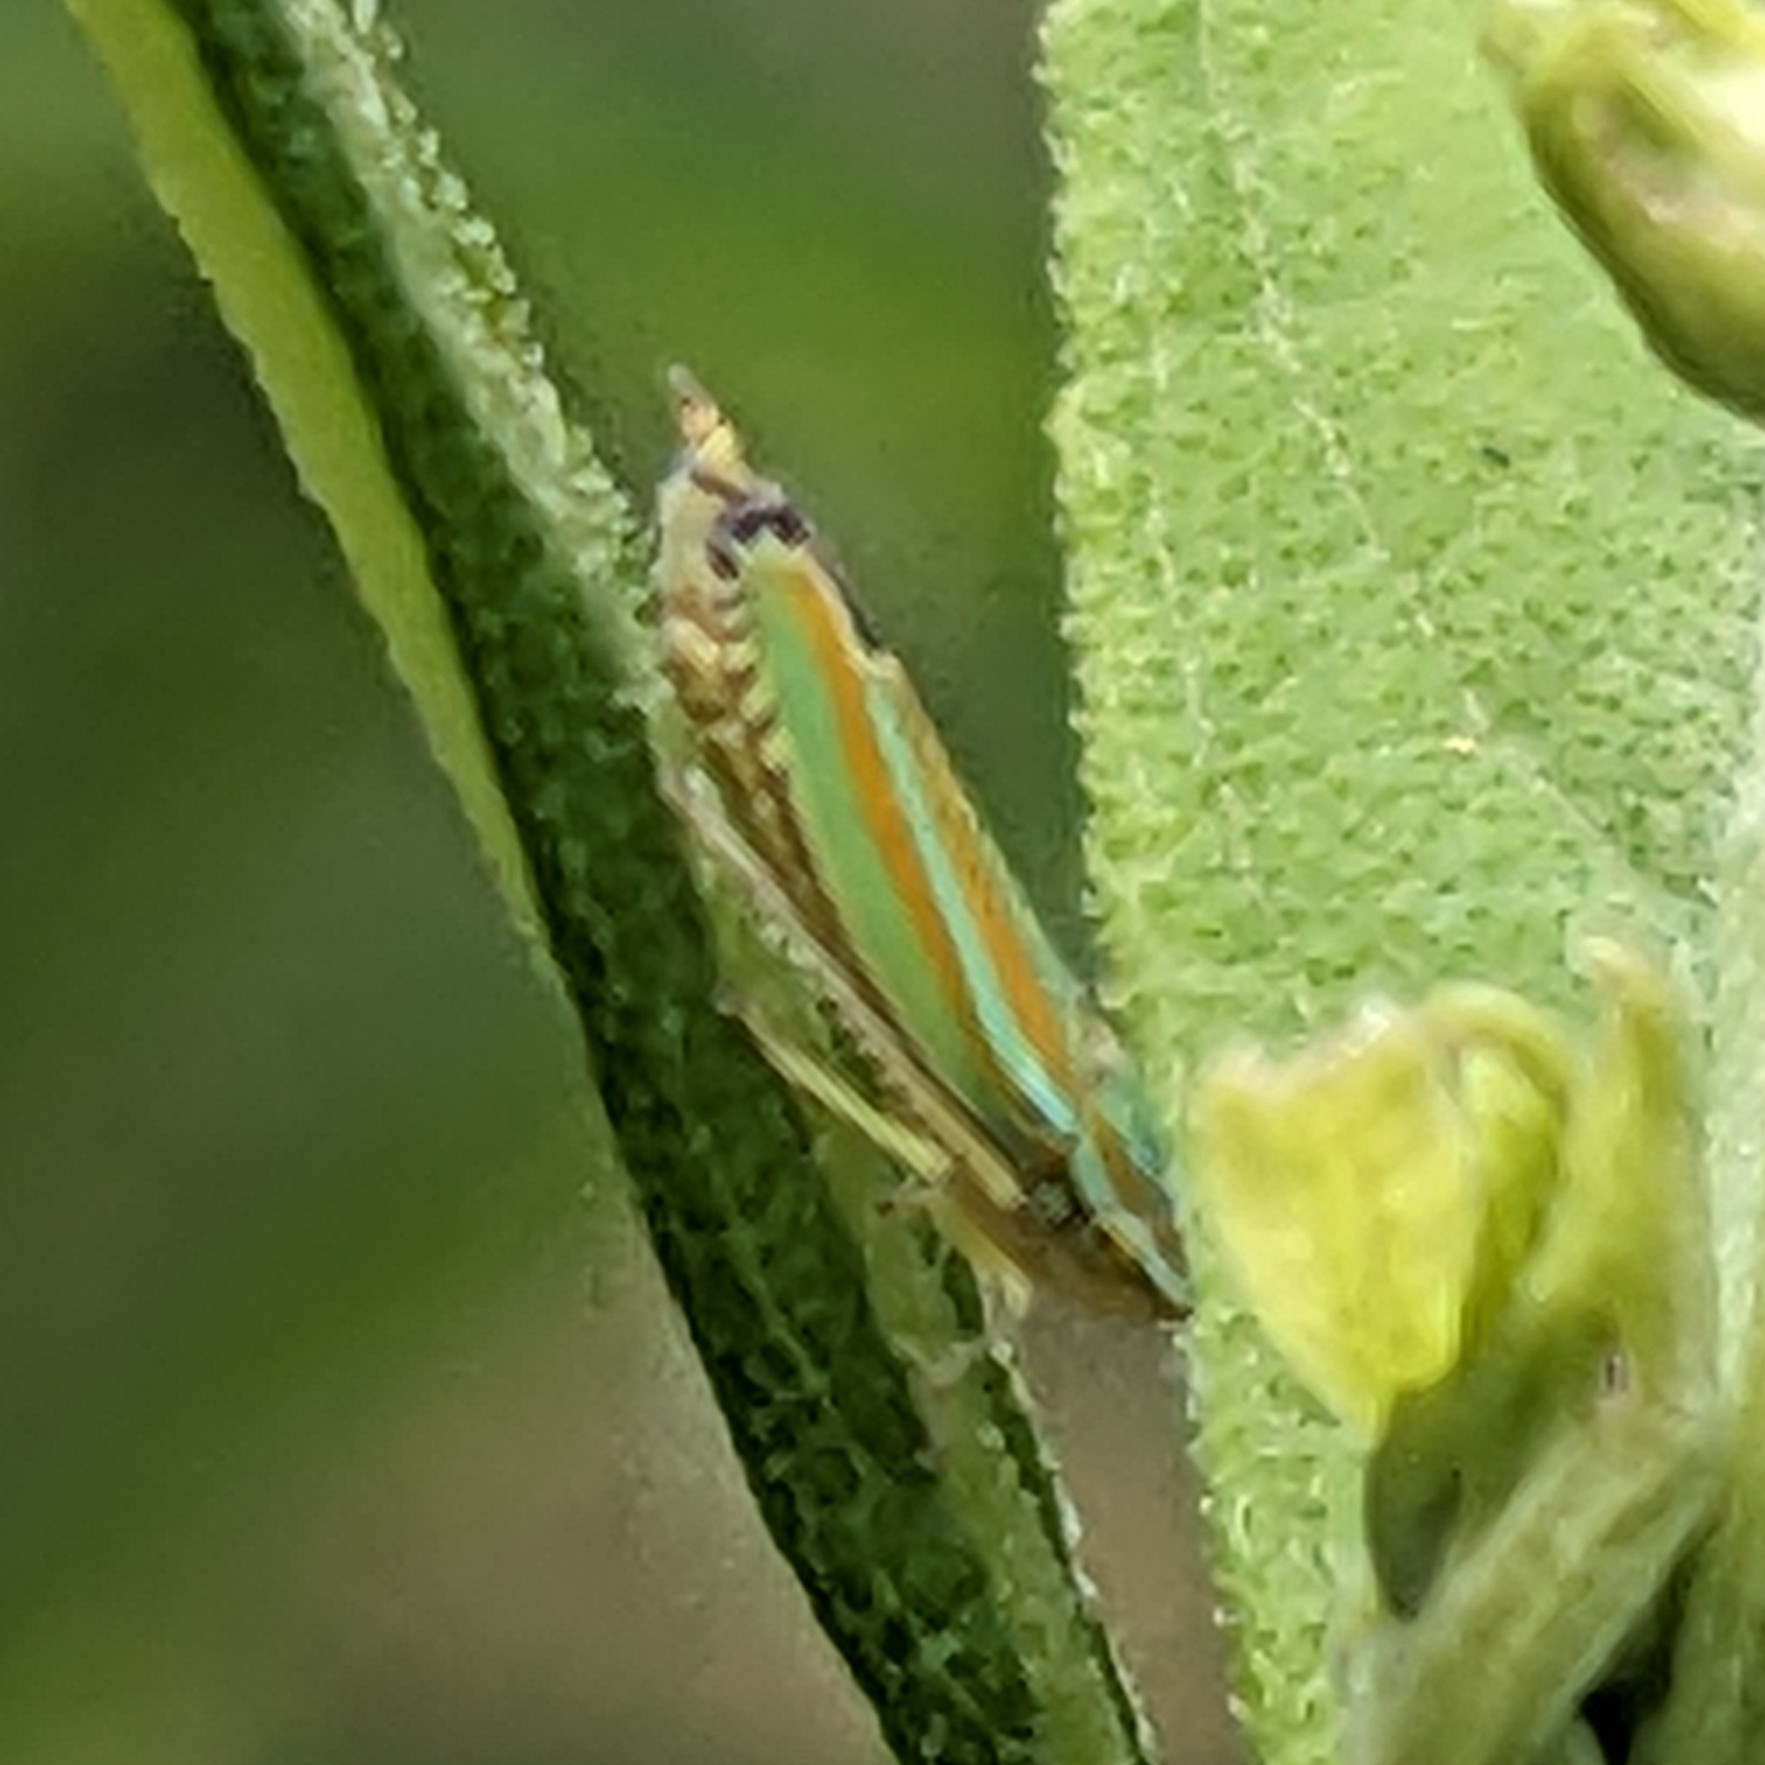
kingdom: Animalia
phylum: Arthropoda
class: Insecta
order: Hemiptera
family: Cicadellidae
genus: Graphocephala
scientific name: Graphocephala versuta
